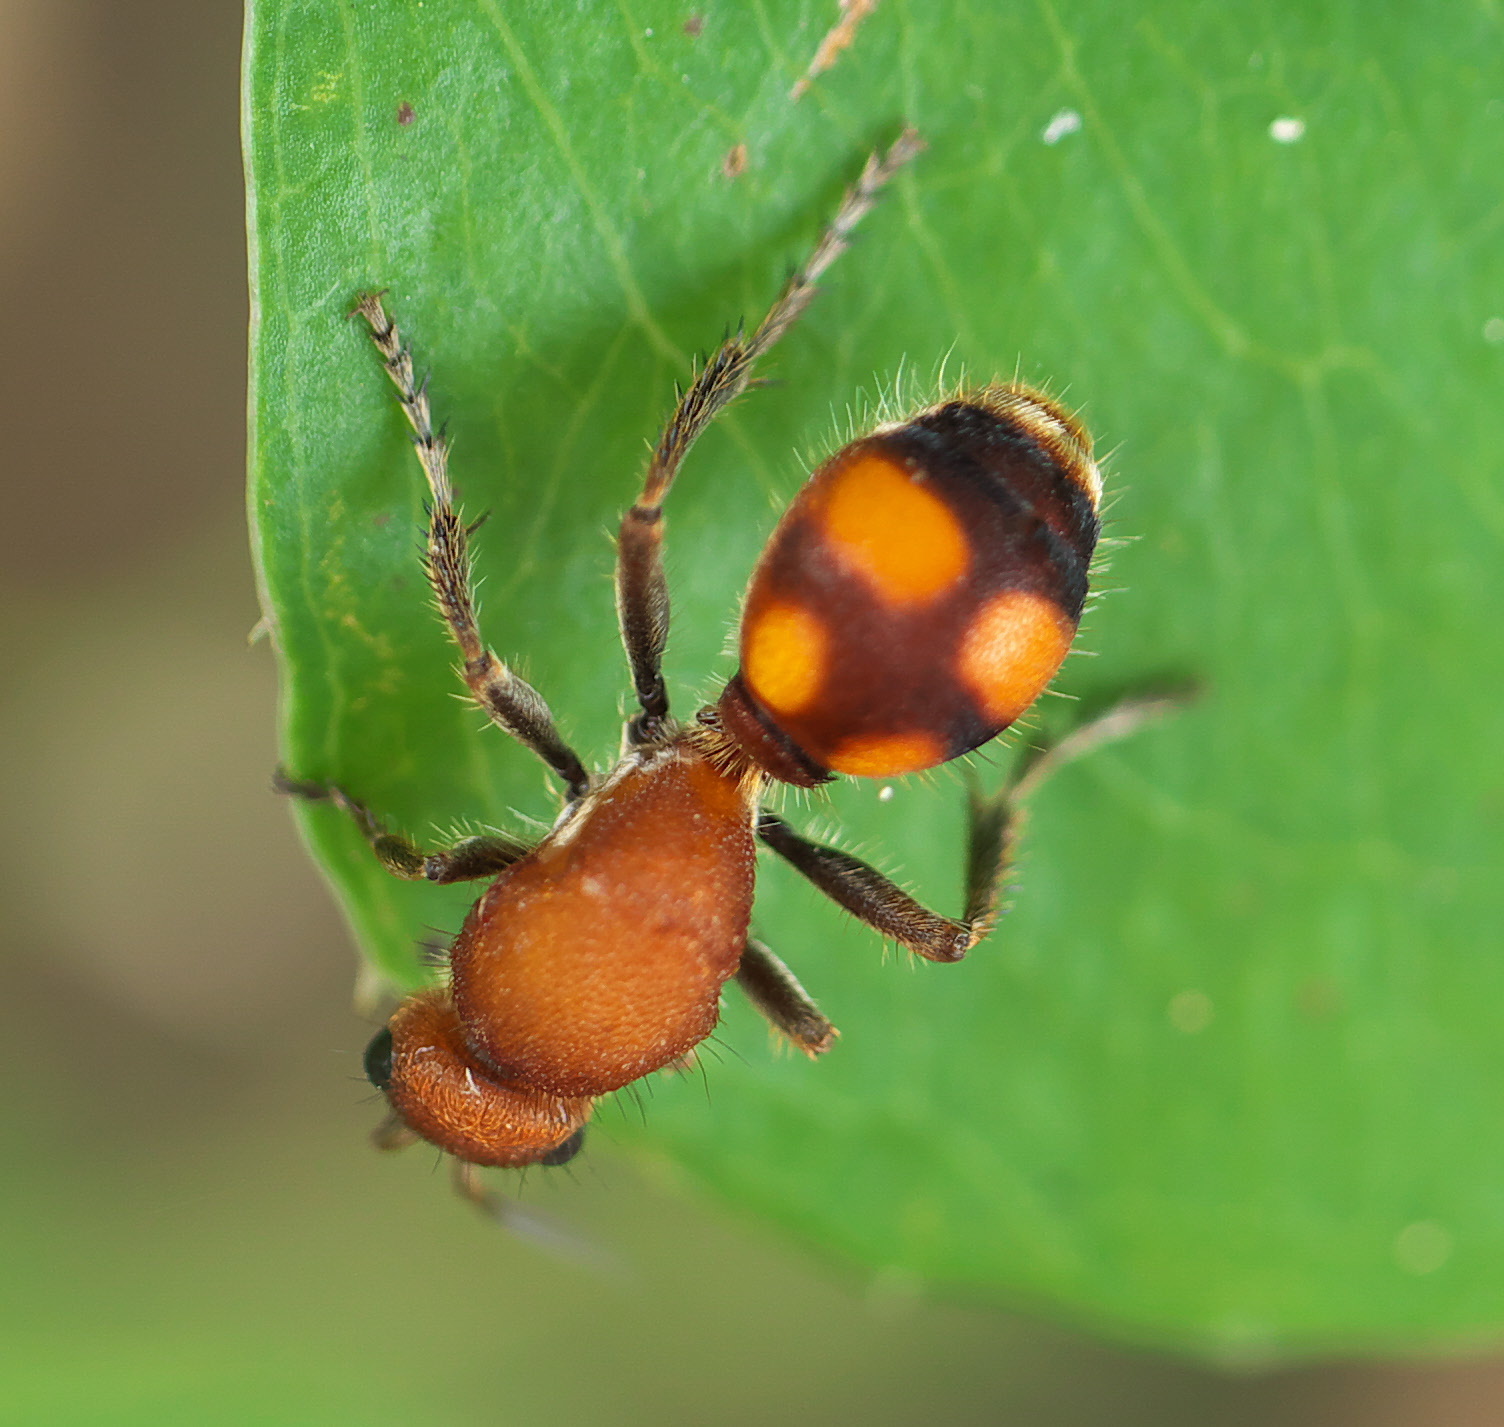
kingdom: Animalia
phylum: Arthropoda
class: Insecta
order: Hymenoptera
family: Mutillidae
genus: Dasymutilla
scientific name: Dasymutilla
